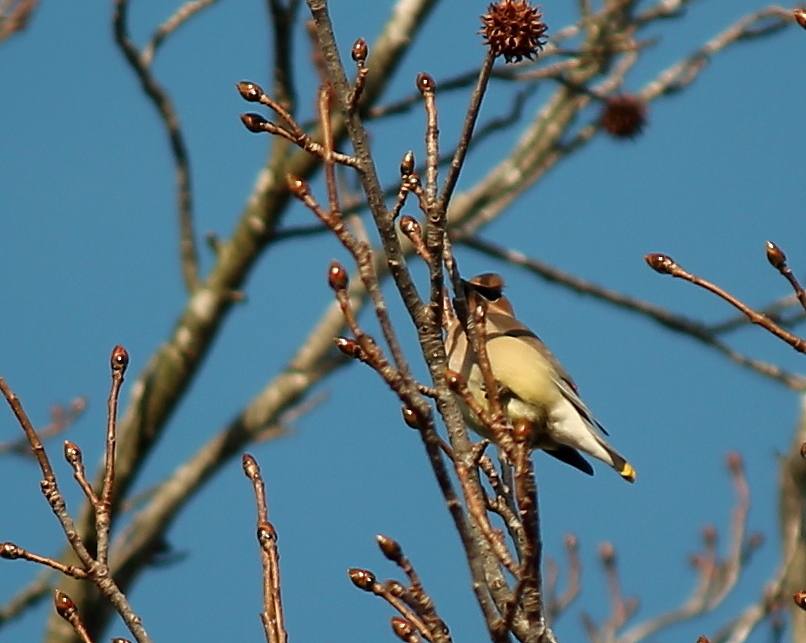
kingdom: Animalia
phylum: Chordata
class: Aves
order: Passeriformes
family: Bombycillidae
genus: Bombycilla
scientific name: Bombycilla cedrorum
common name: Cedar waxwing
